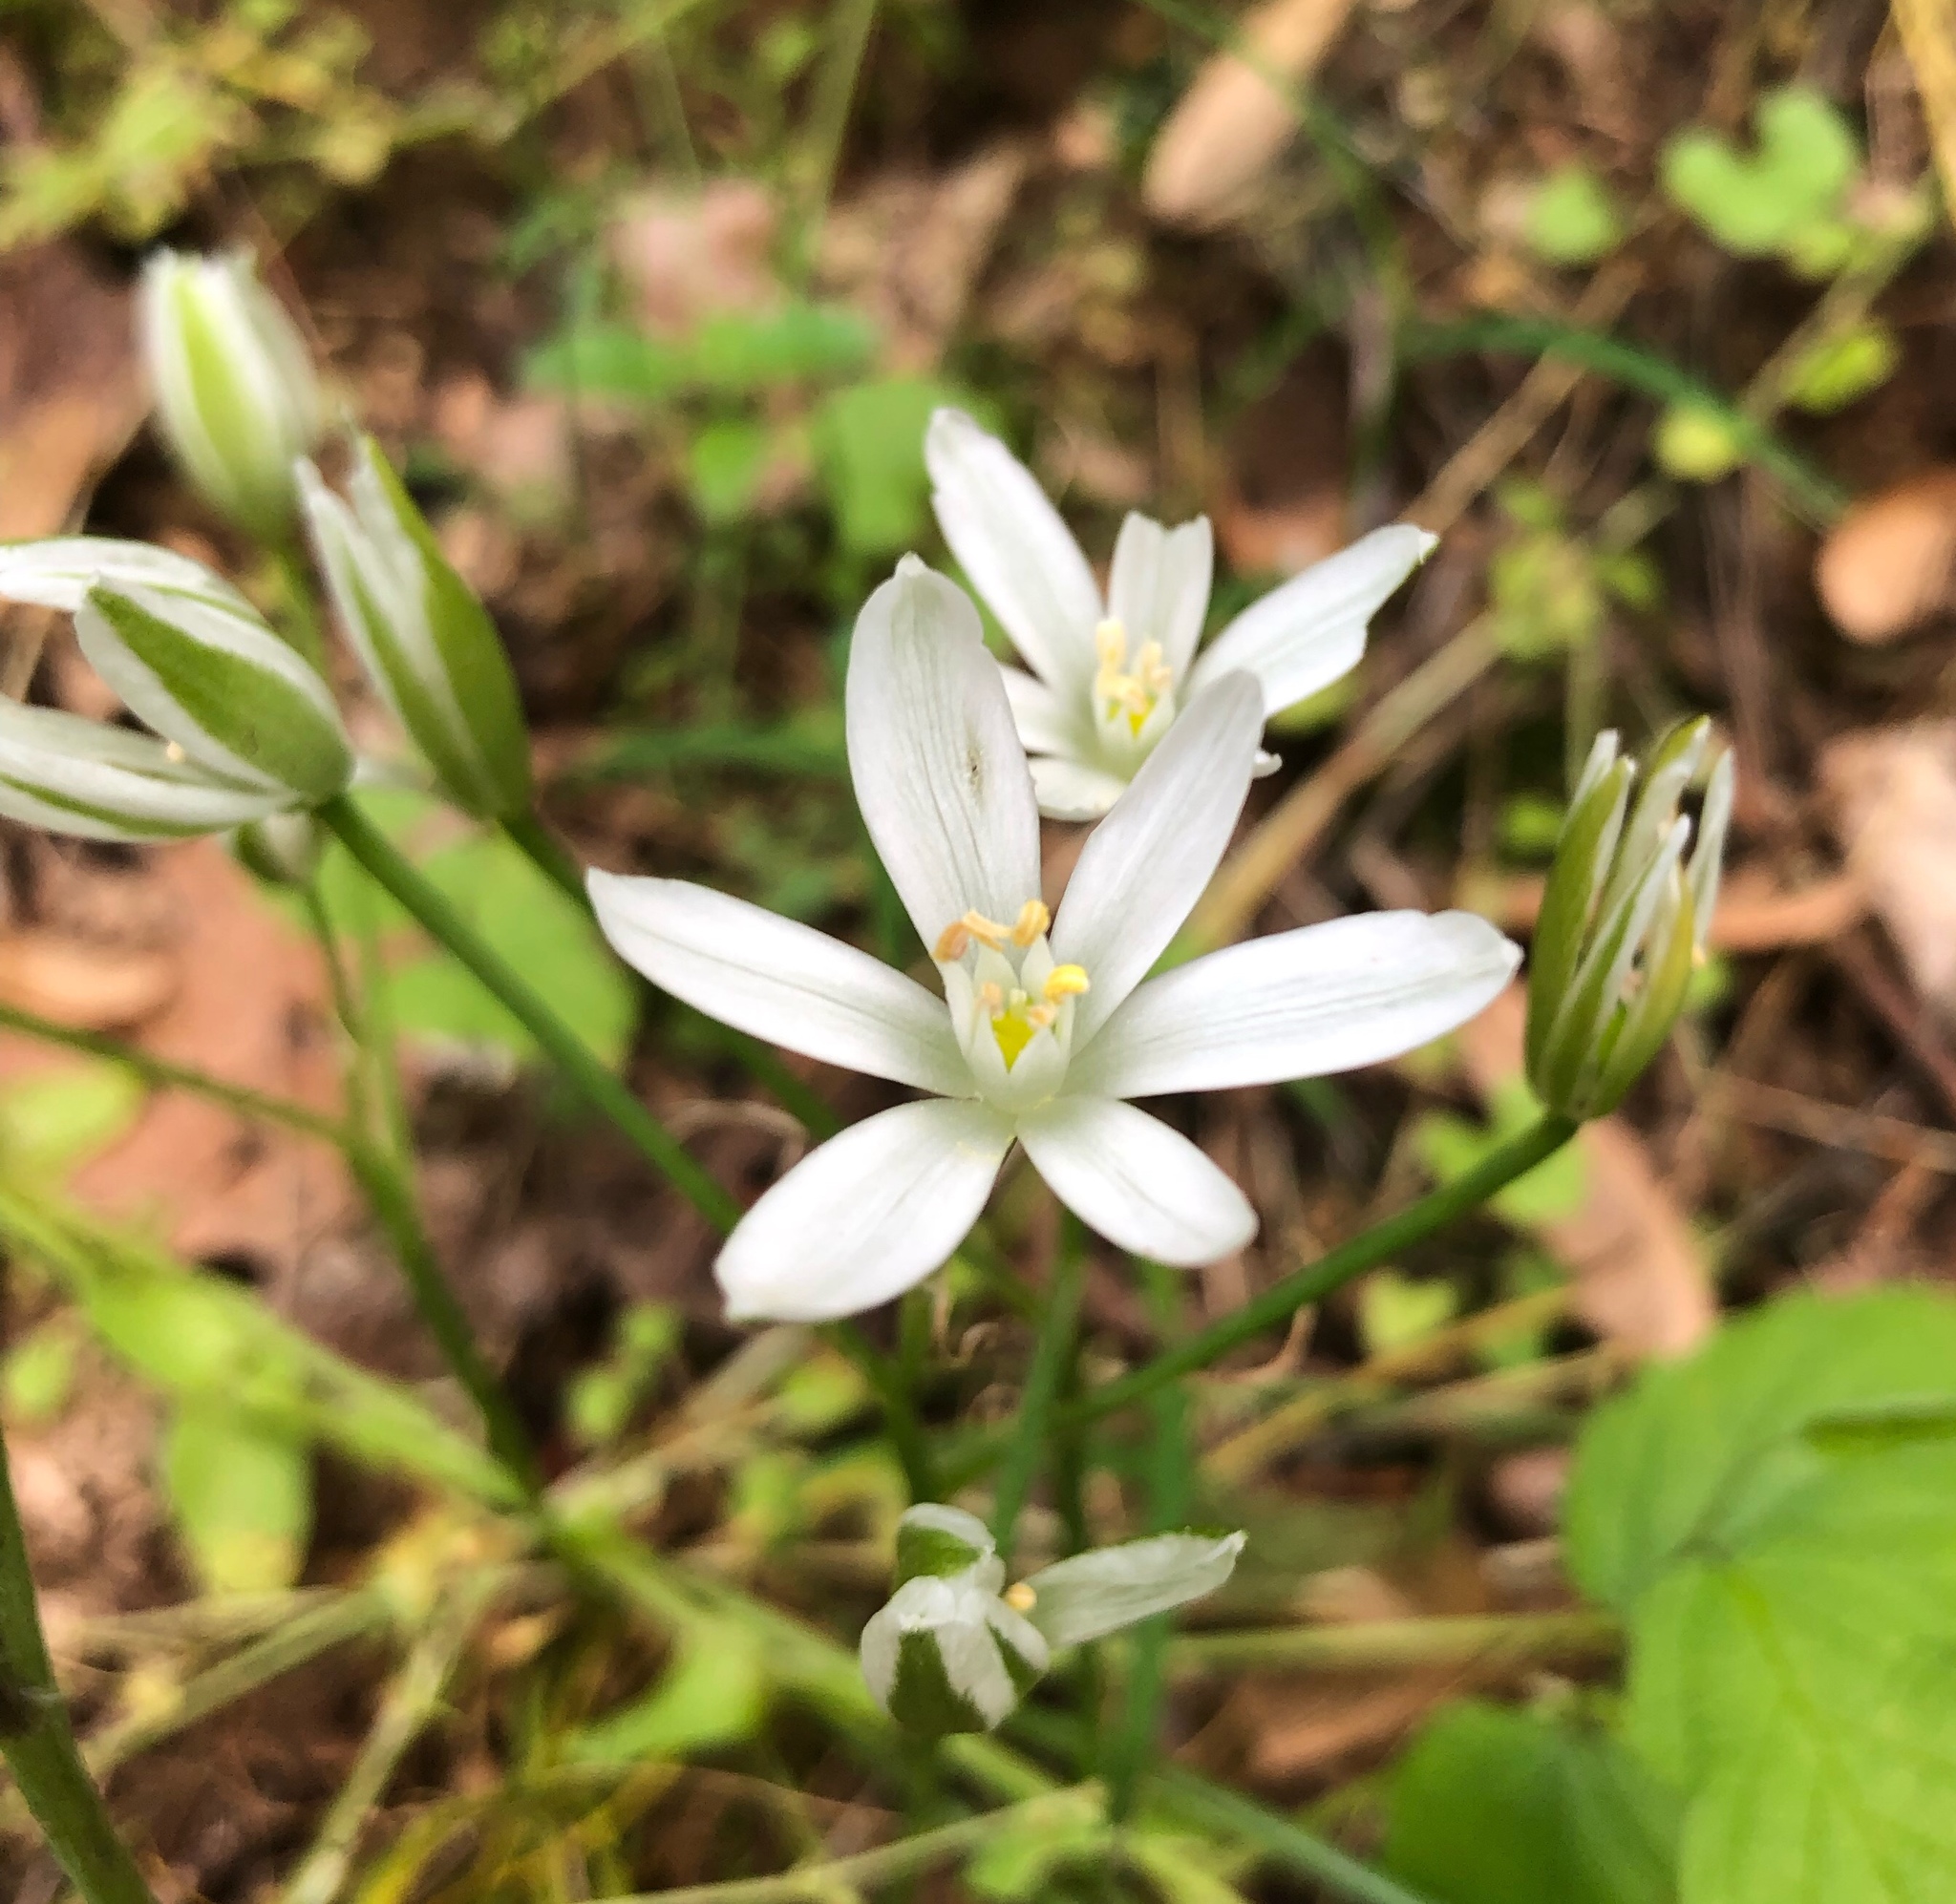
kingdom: Plantae
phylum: Tracheophyta
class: Liliopsida
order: Asparagales
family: Asparagaceae
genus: Ornithogalum
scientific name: Ornithogalum umbellatum
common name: Garden star-of-bethlehem
